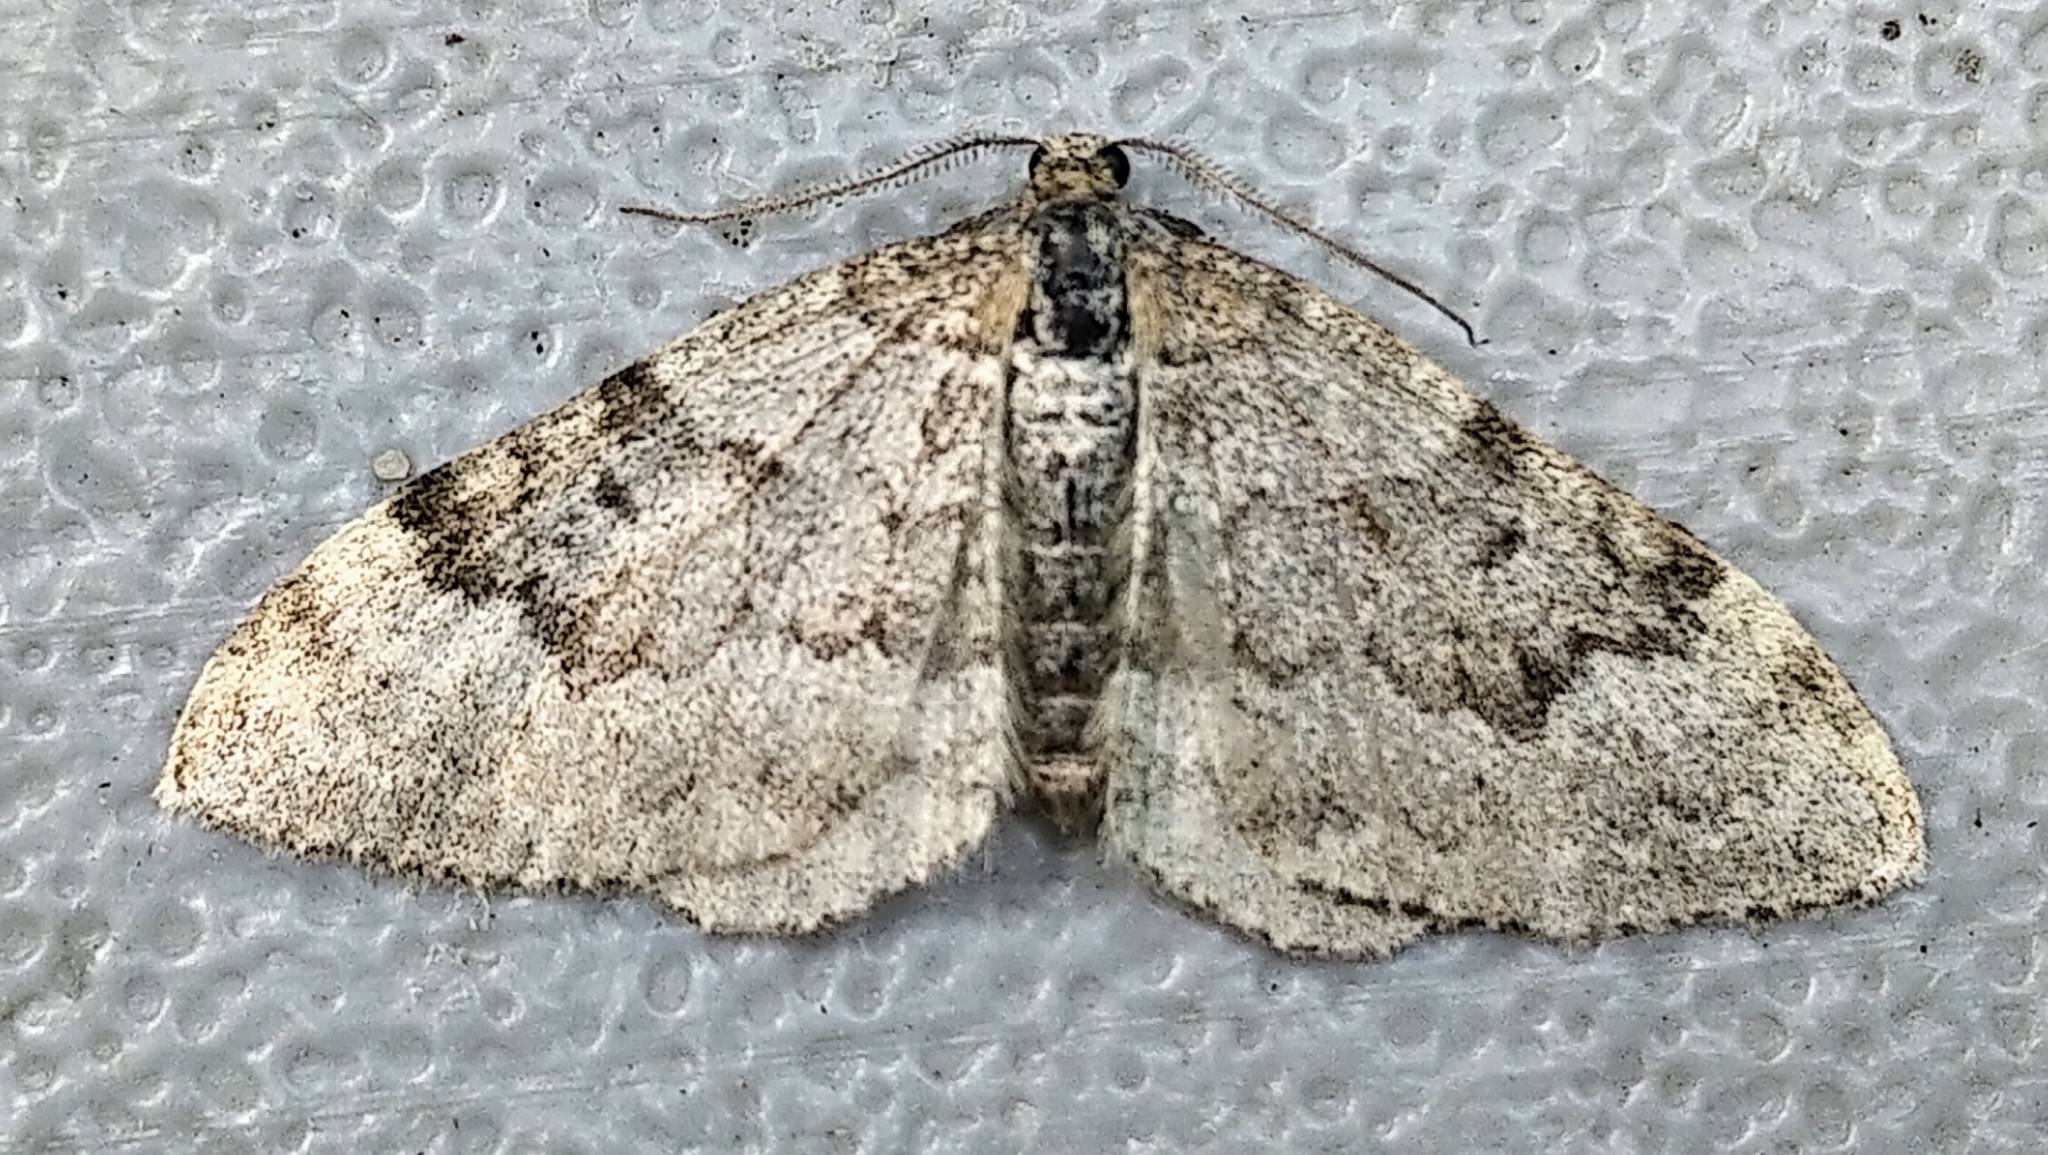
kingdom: Animalia
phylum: Arthropoda
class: Insecta
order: Lepidoptera
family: Geometridae
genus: Xanthorhoe
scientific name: Xanthorhoe lagganata
